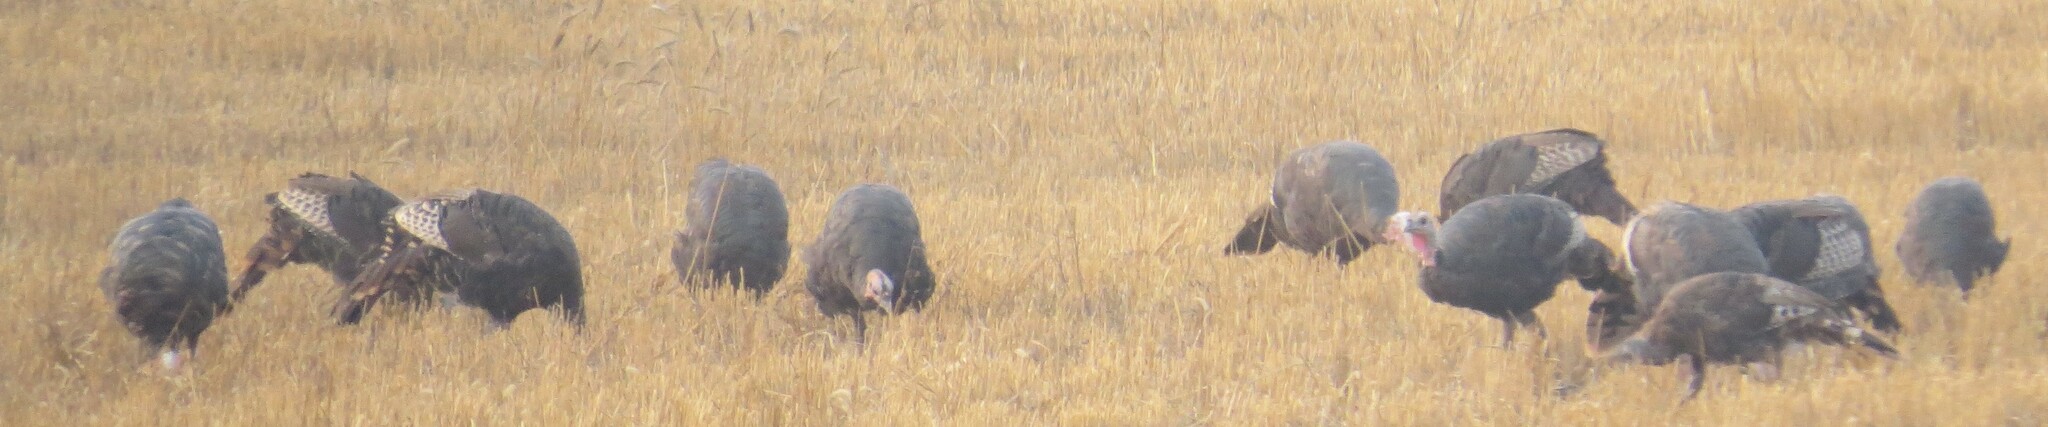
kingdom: Animalia
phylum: Chordata
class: Aves
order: Galliformes
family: Phasianidae
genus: Meleagris
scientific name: Meleagris gallopavo
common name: Wild turkey
